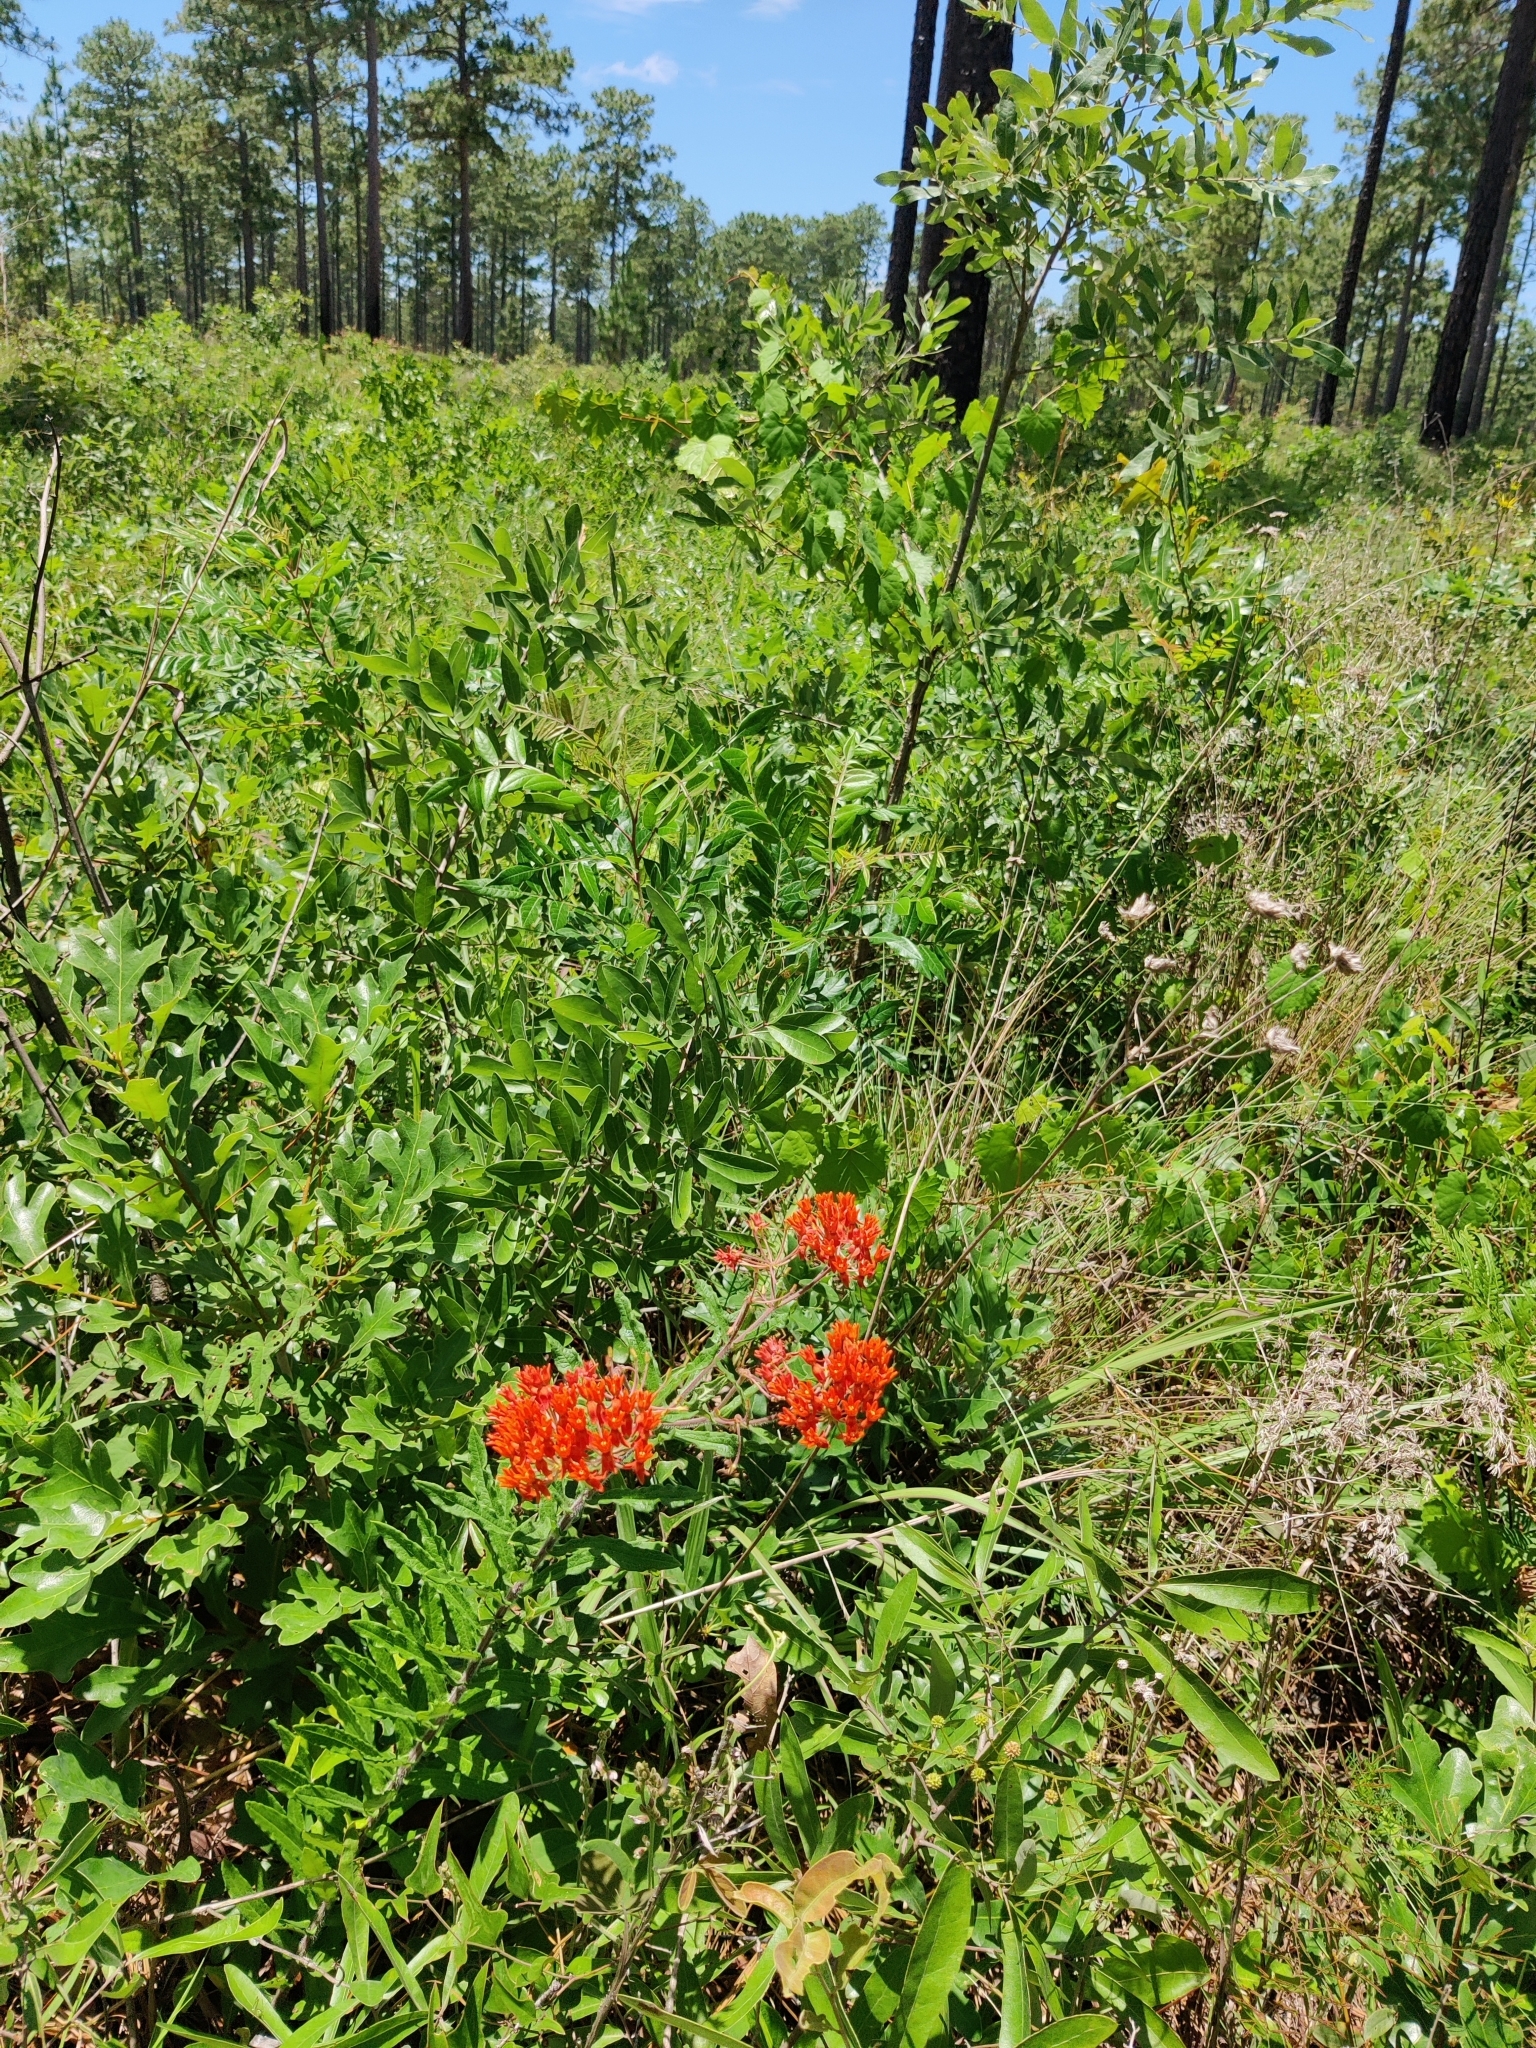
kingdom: Plantae
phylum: Tracheophyta
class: Magnoliopsida
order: Gentianales
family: Apocynaceae
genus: Asclepias
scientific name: Asclepias tuberosa
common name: Butterfly milkweed
